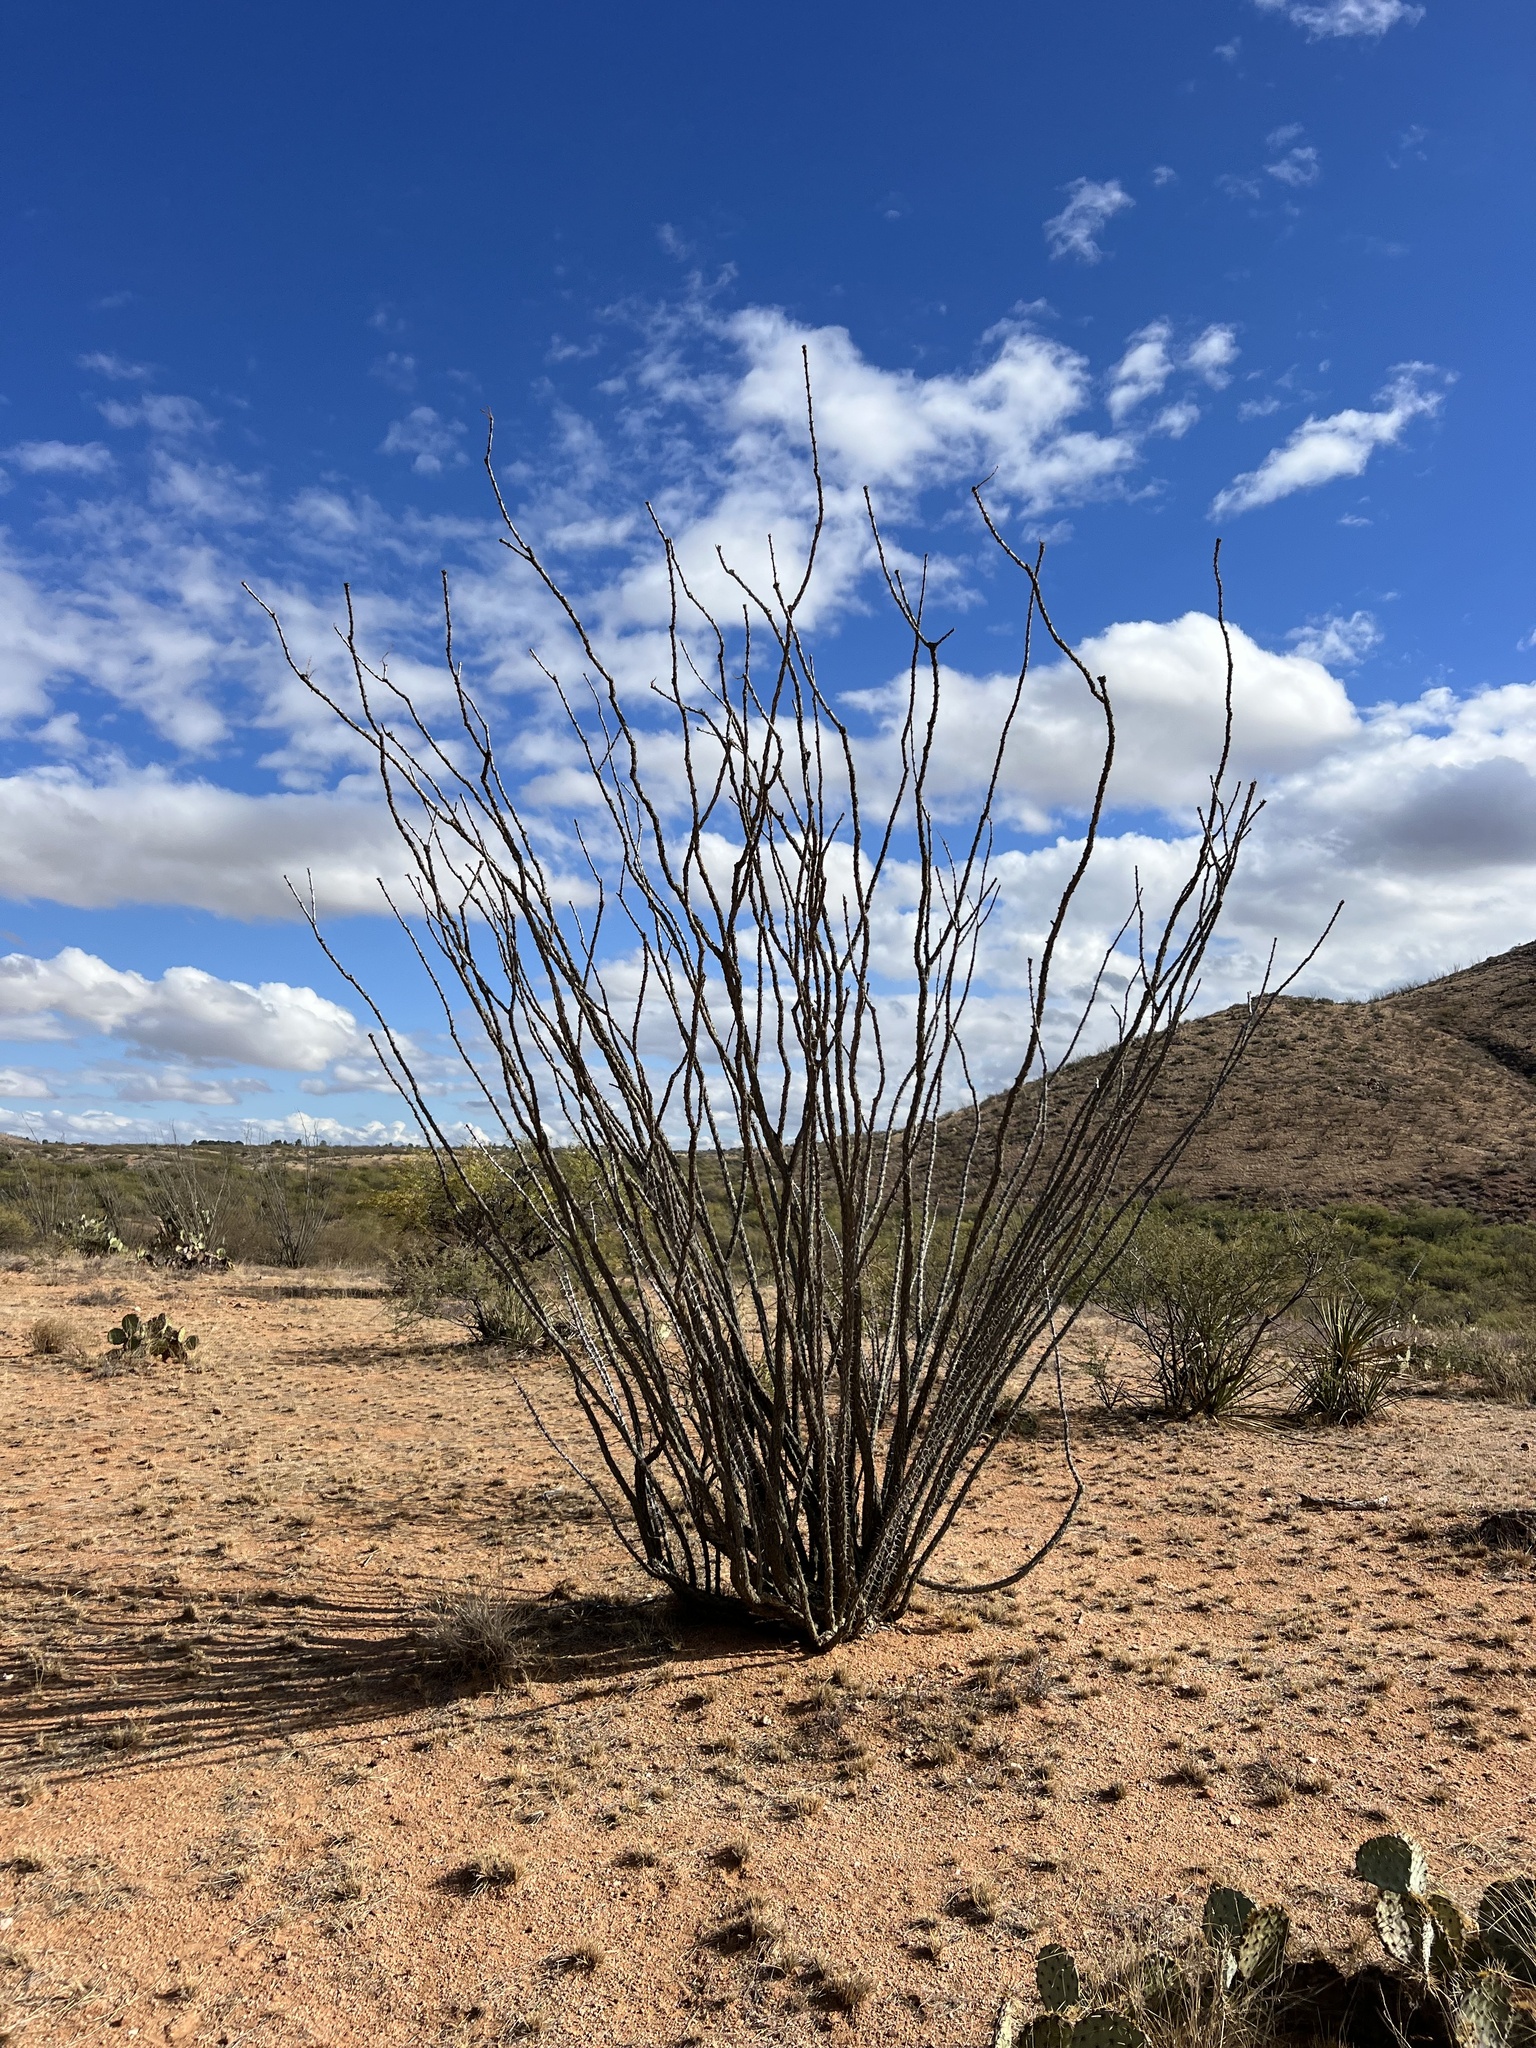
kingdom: Plantae
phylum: Tracheophyta
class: Magnoliopsida
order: Ericales
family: Fouquieriaceae
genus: Fouquieria
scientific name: Fouquieria splendens
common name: Vine-cactus
